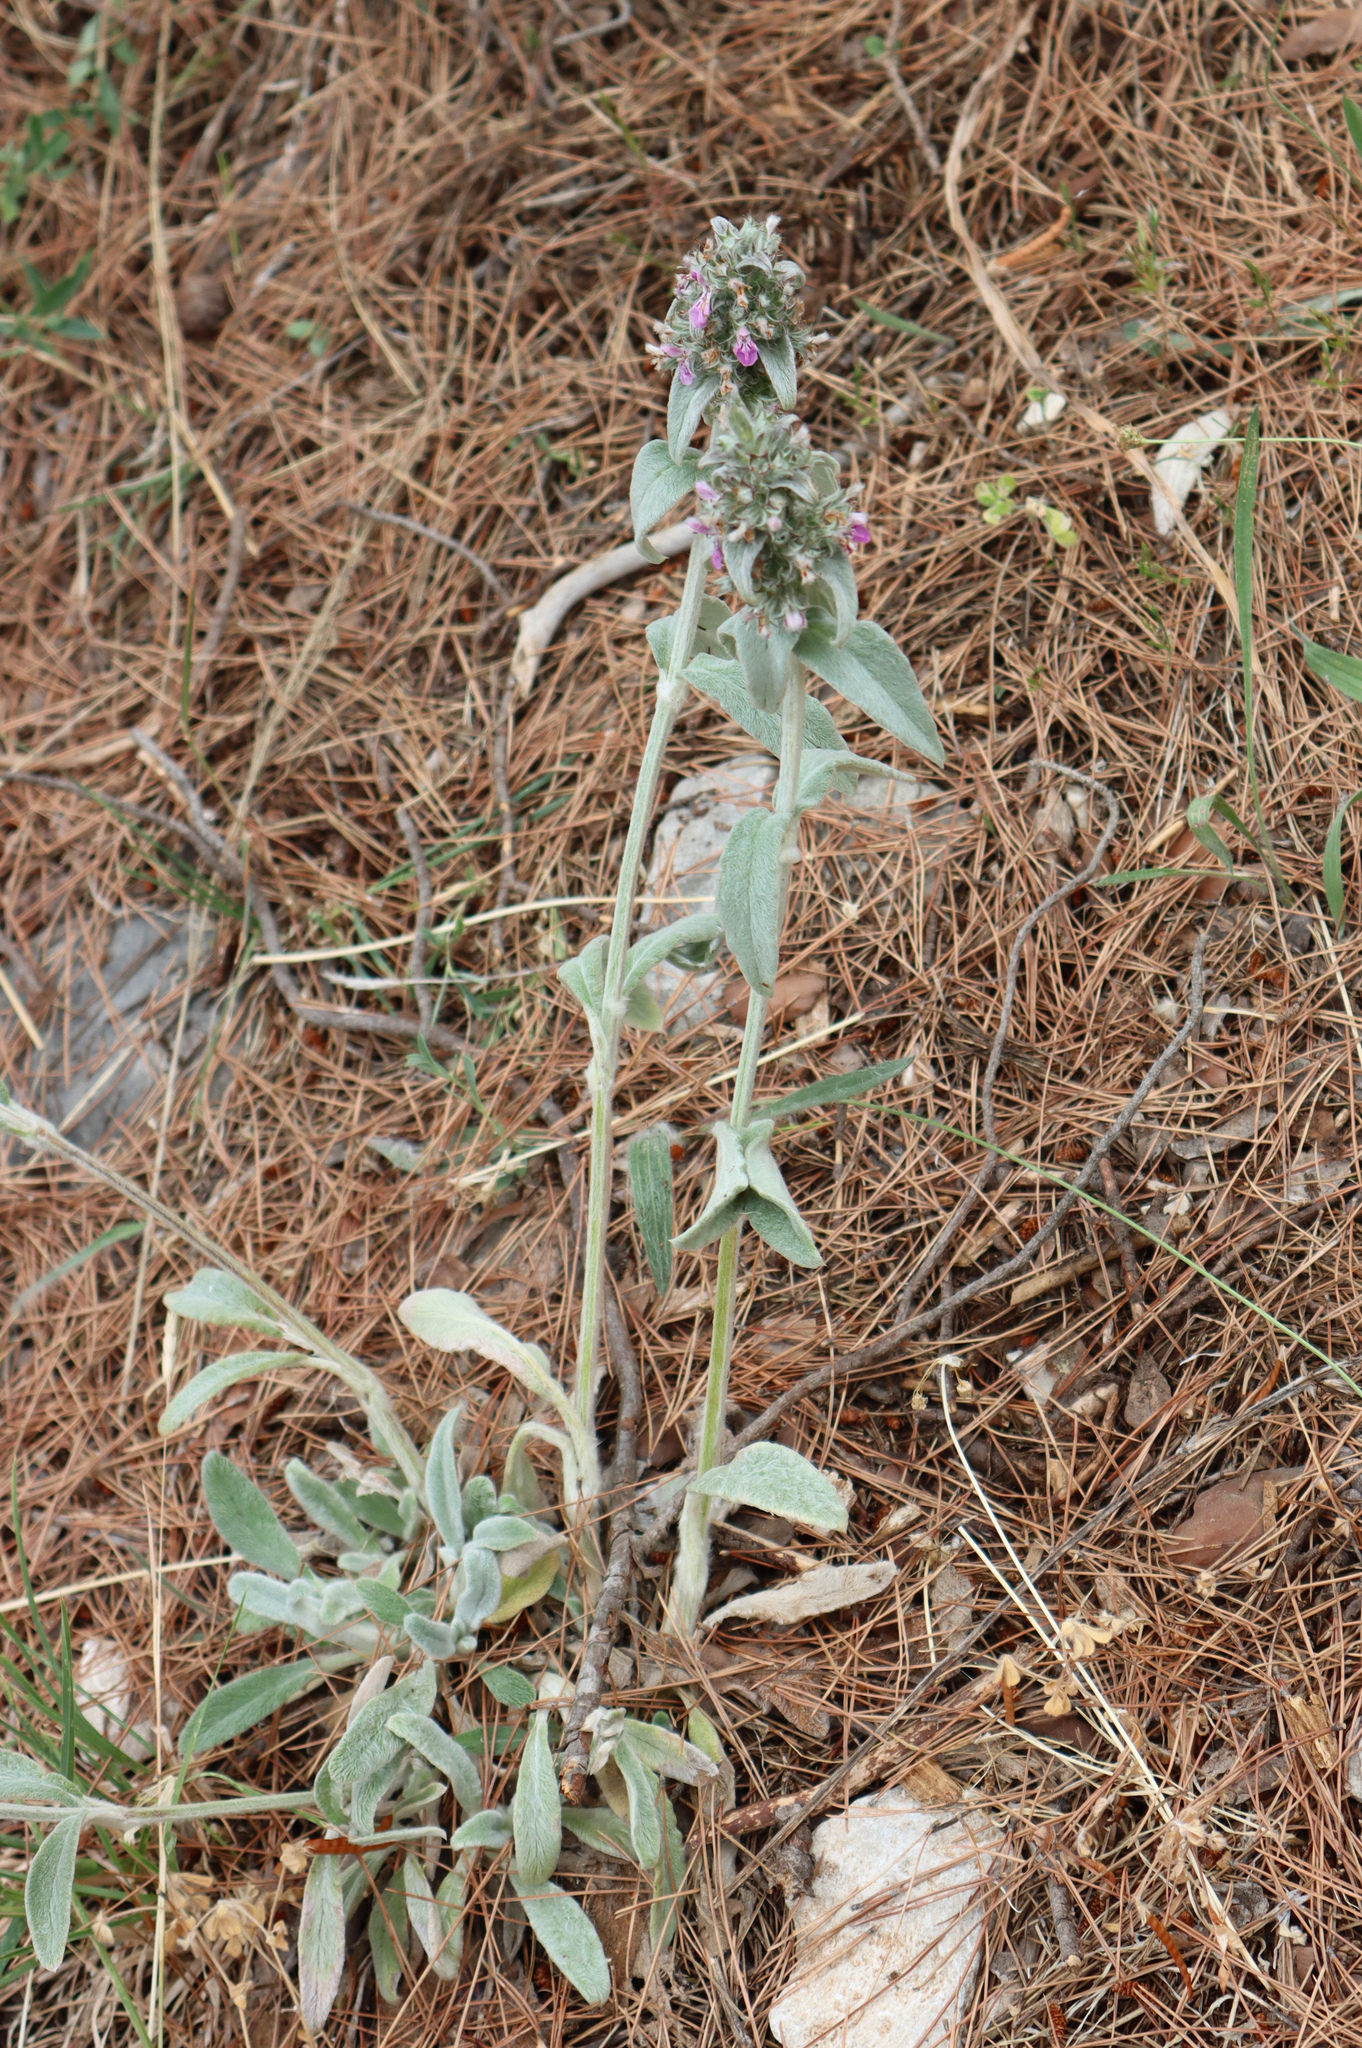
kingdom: Plantae
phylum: Tracheophyta
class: Magnoliopsida
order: Lamiales
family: Lamiaceae
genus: Stachys
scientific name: Stachys cretica
